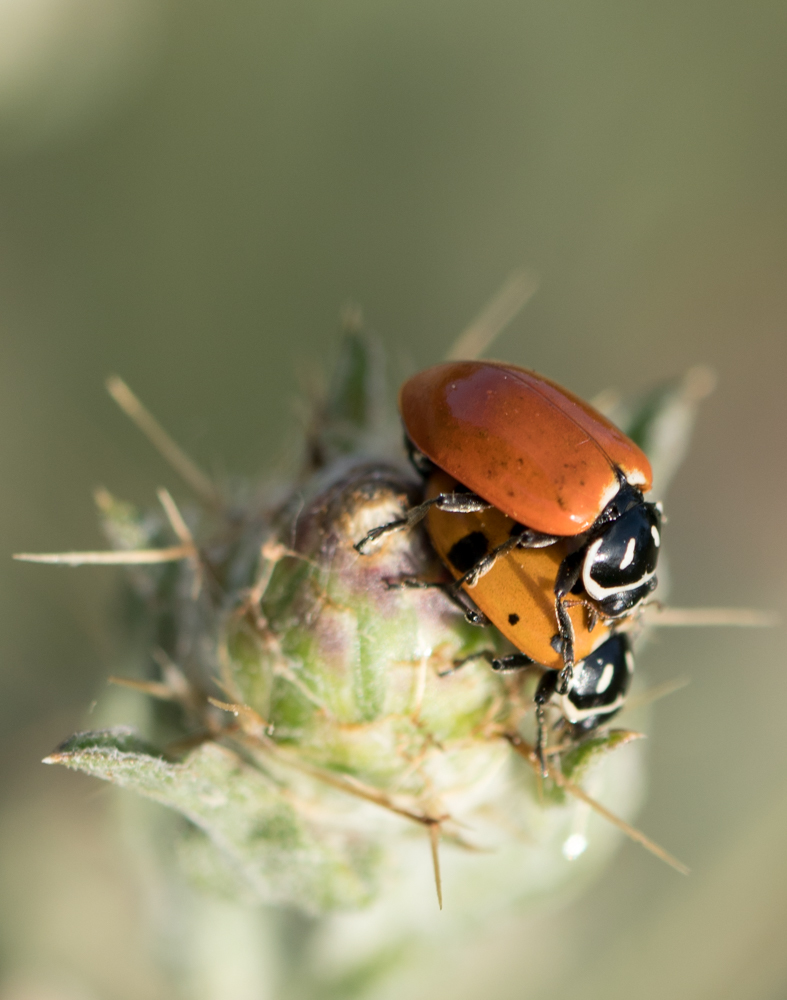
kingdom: Animalia
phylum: Arthropoda
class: Insecta
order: Coleoptera
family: Coccinellidae
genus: Hippodamia
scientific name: Hippodamia convergens
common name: Convergent lady beetle
